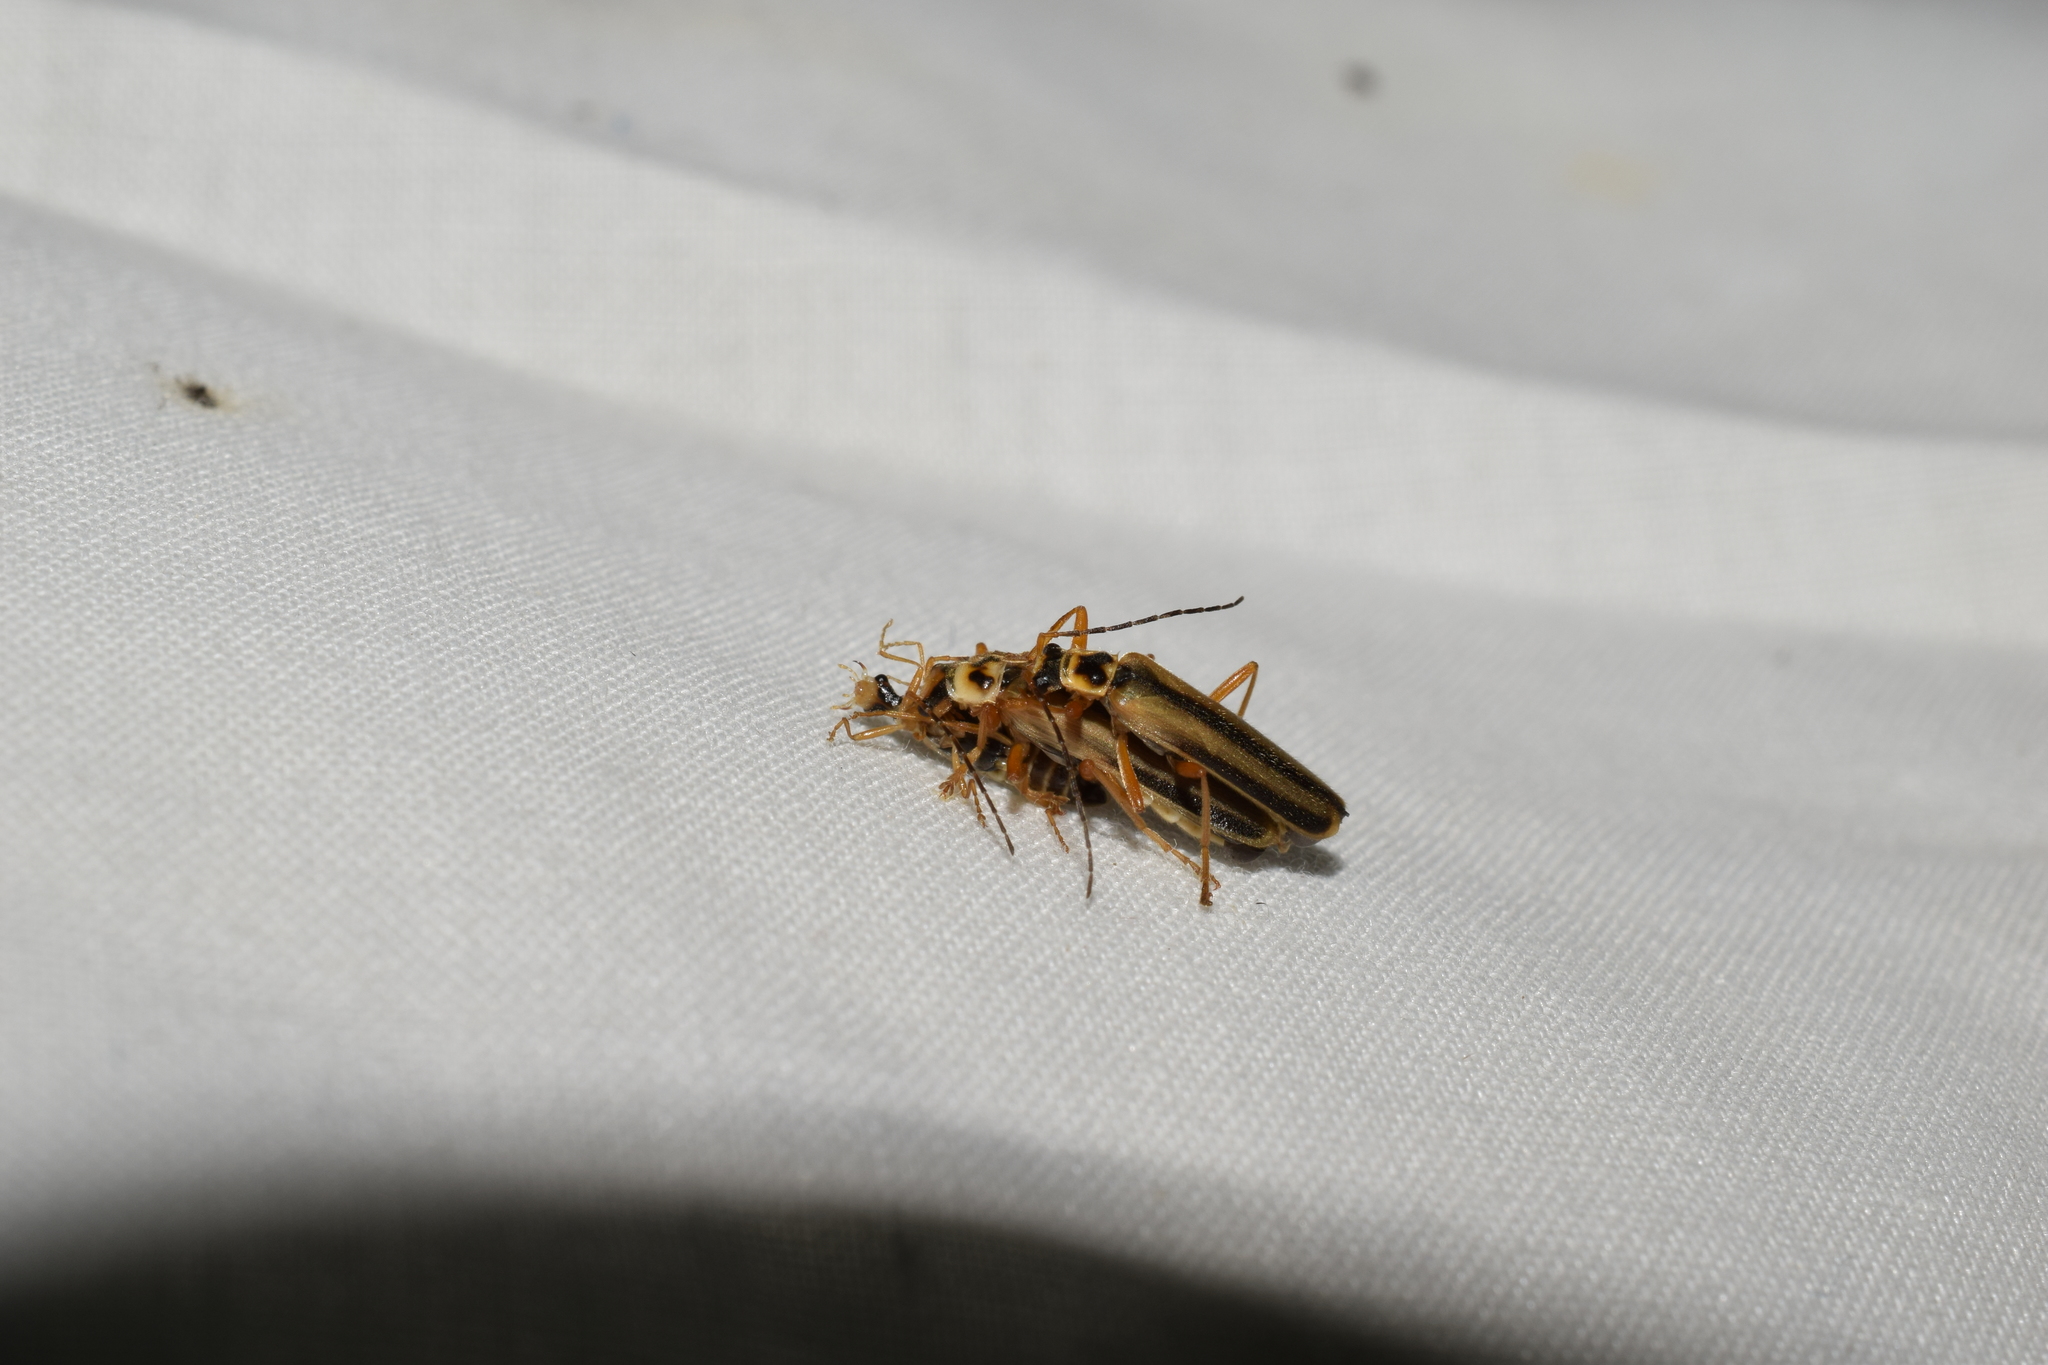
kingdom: Animalia
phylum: Arthropoda
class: Insecta
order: Coleoptera
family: Cantharidae
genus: Lycocerus
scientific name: Lycocerus
